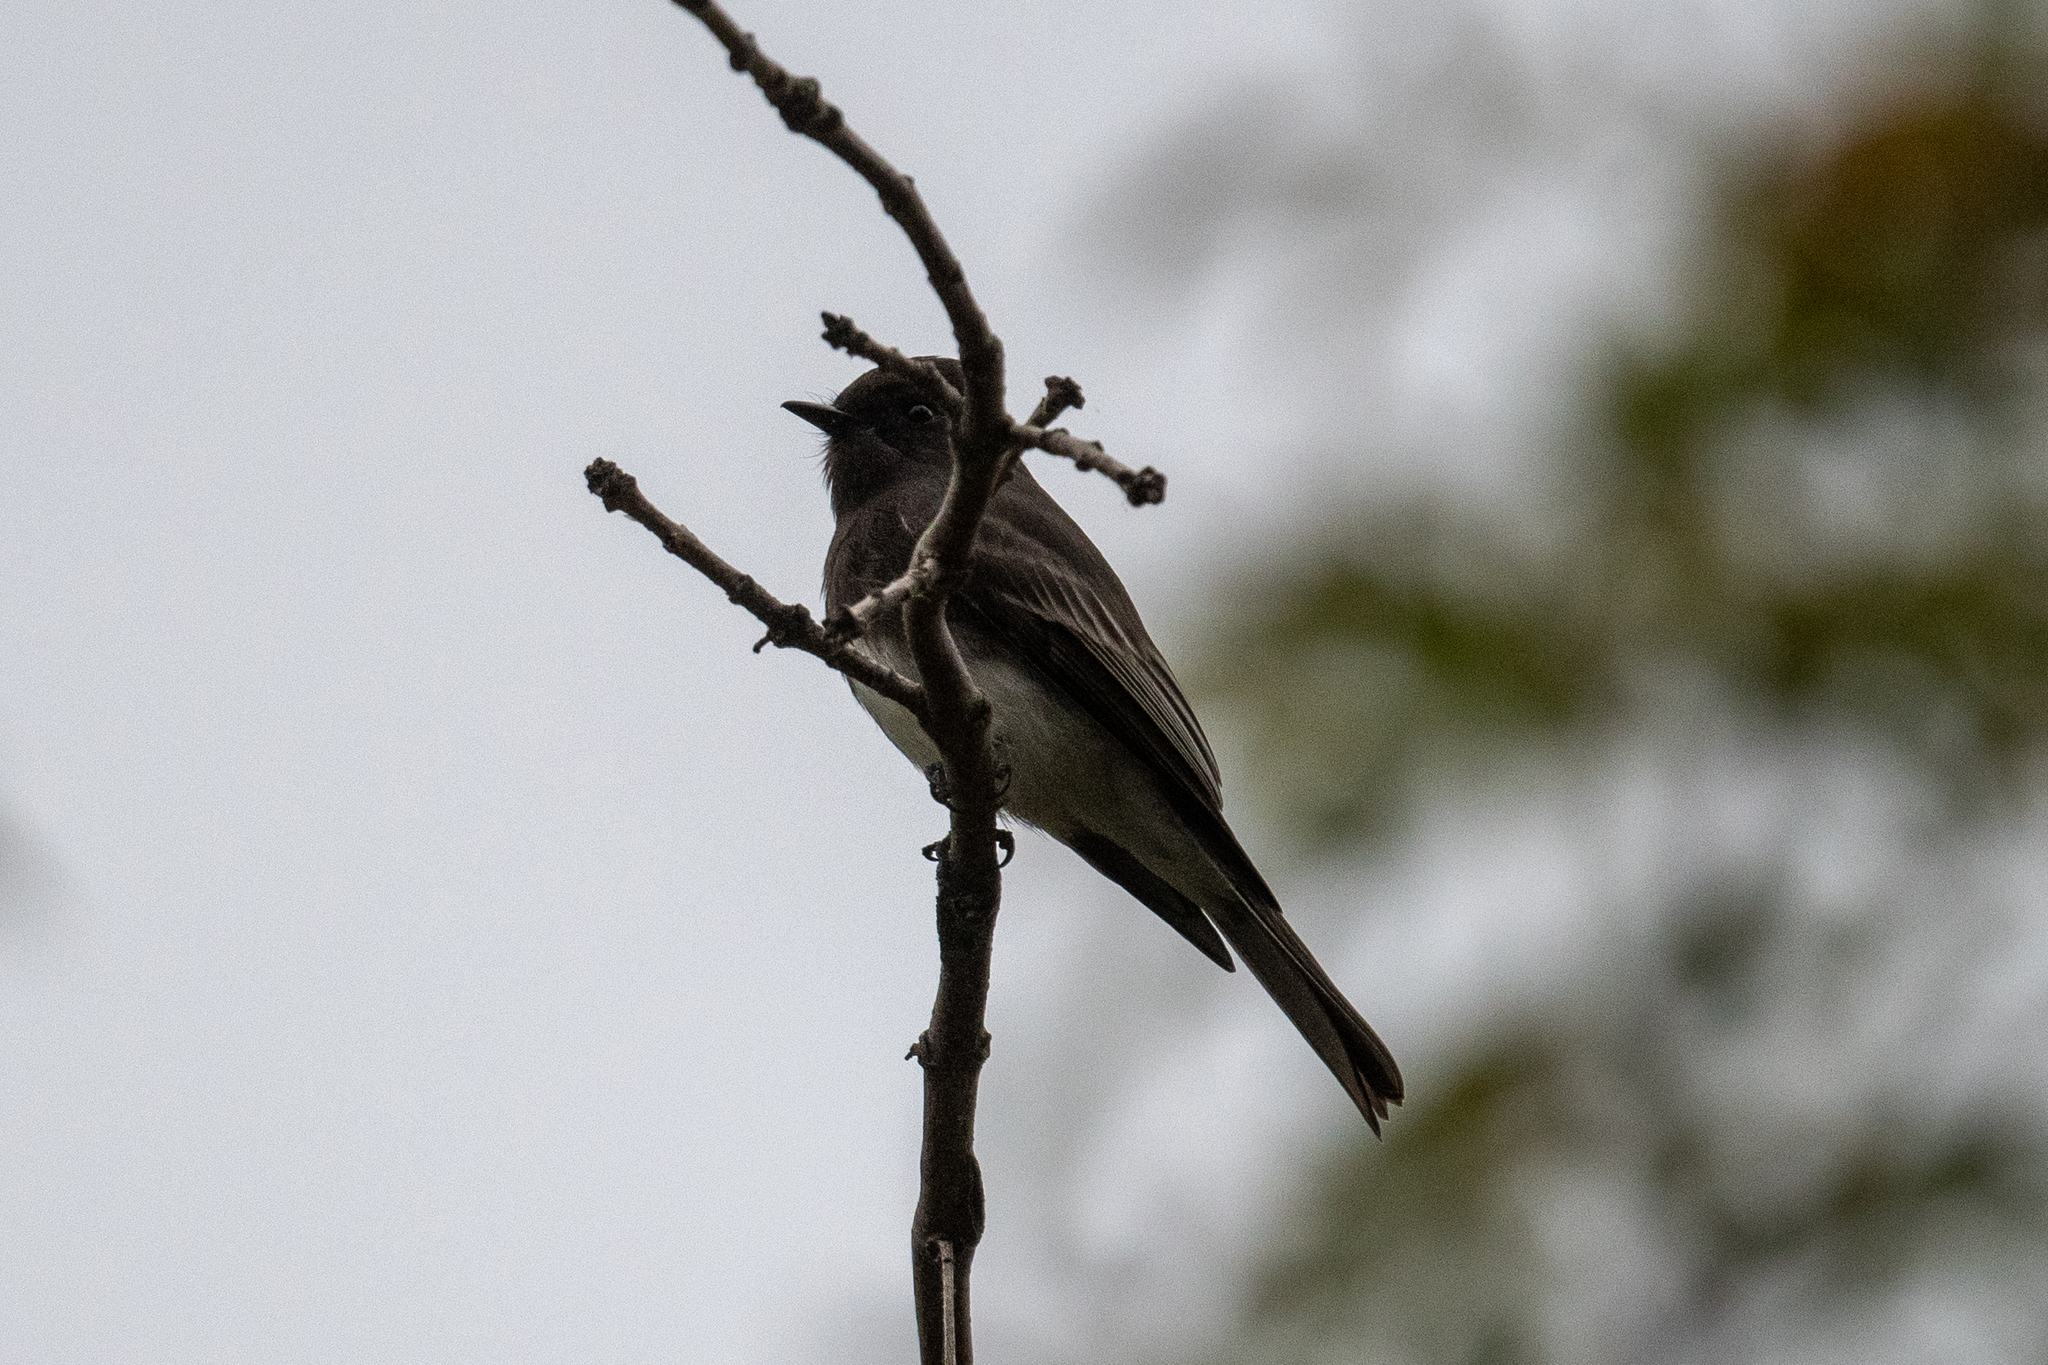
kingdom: Animalia
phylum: Chordata
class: Aves
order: Passeriformes
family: Tyrannidae
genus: Sayornis
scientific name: Sayornis nigricans
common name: Black phoebe
